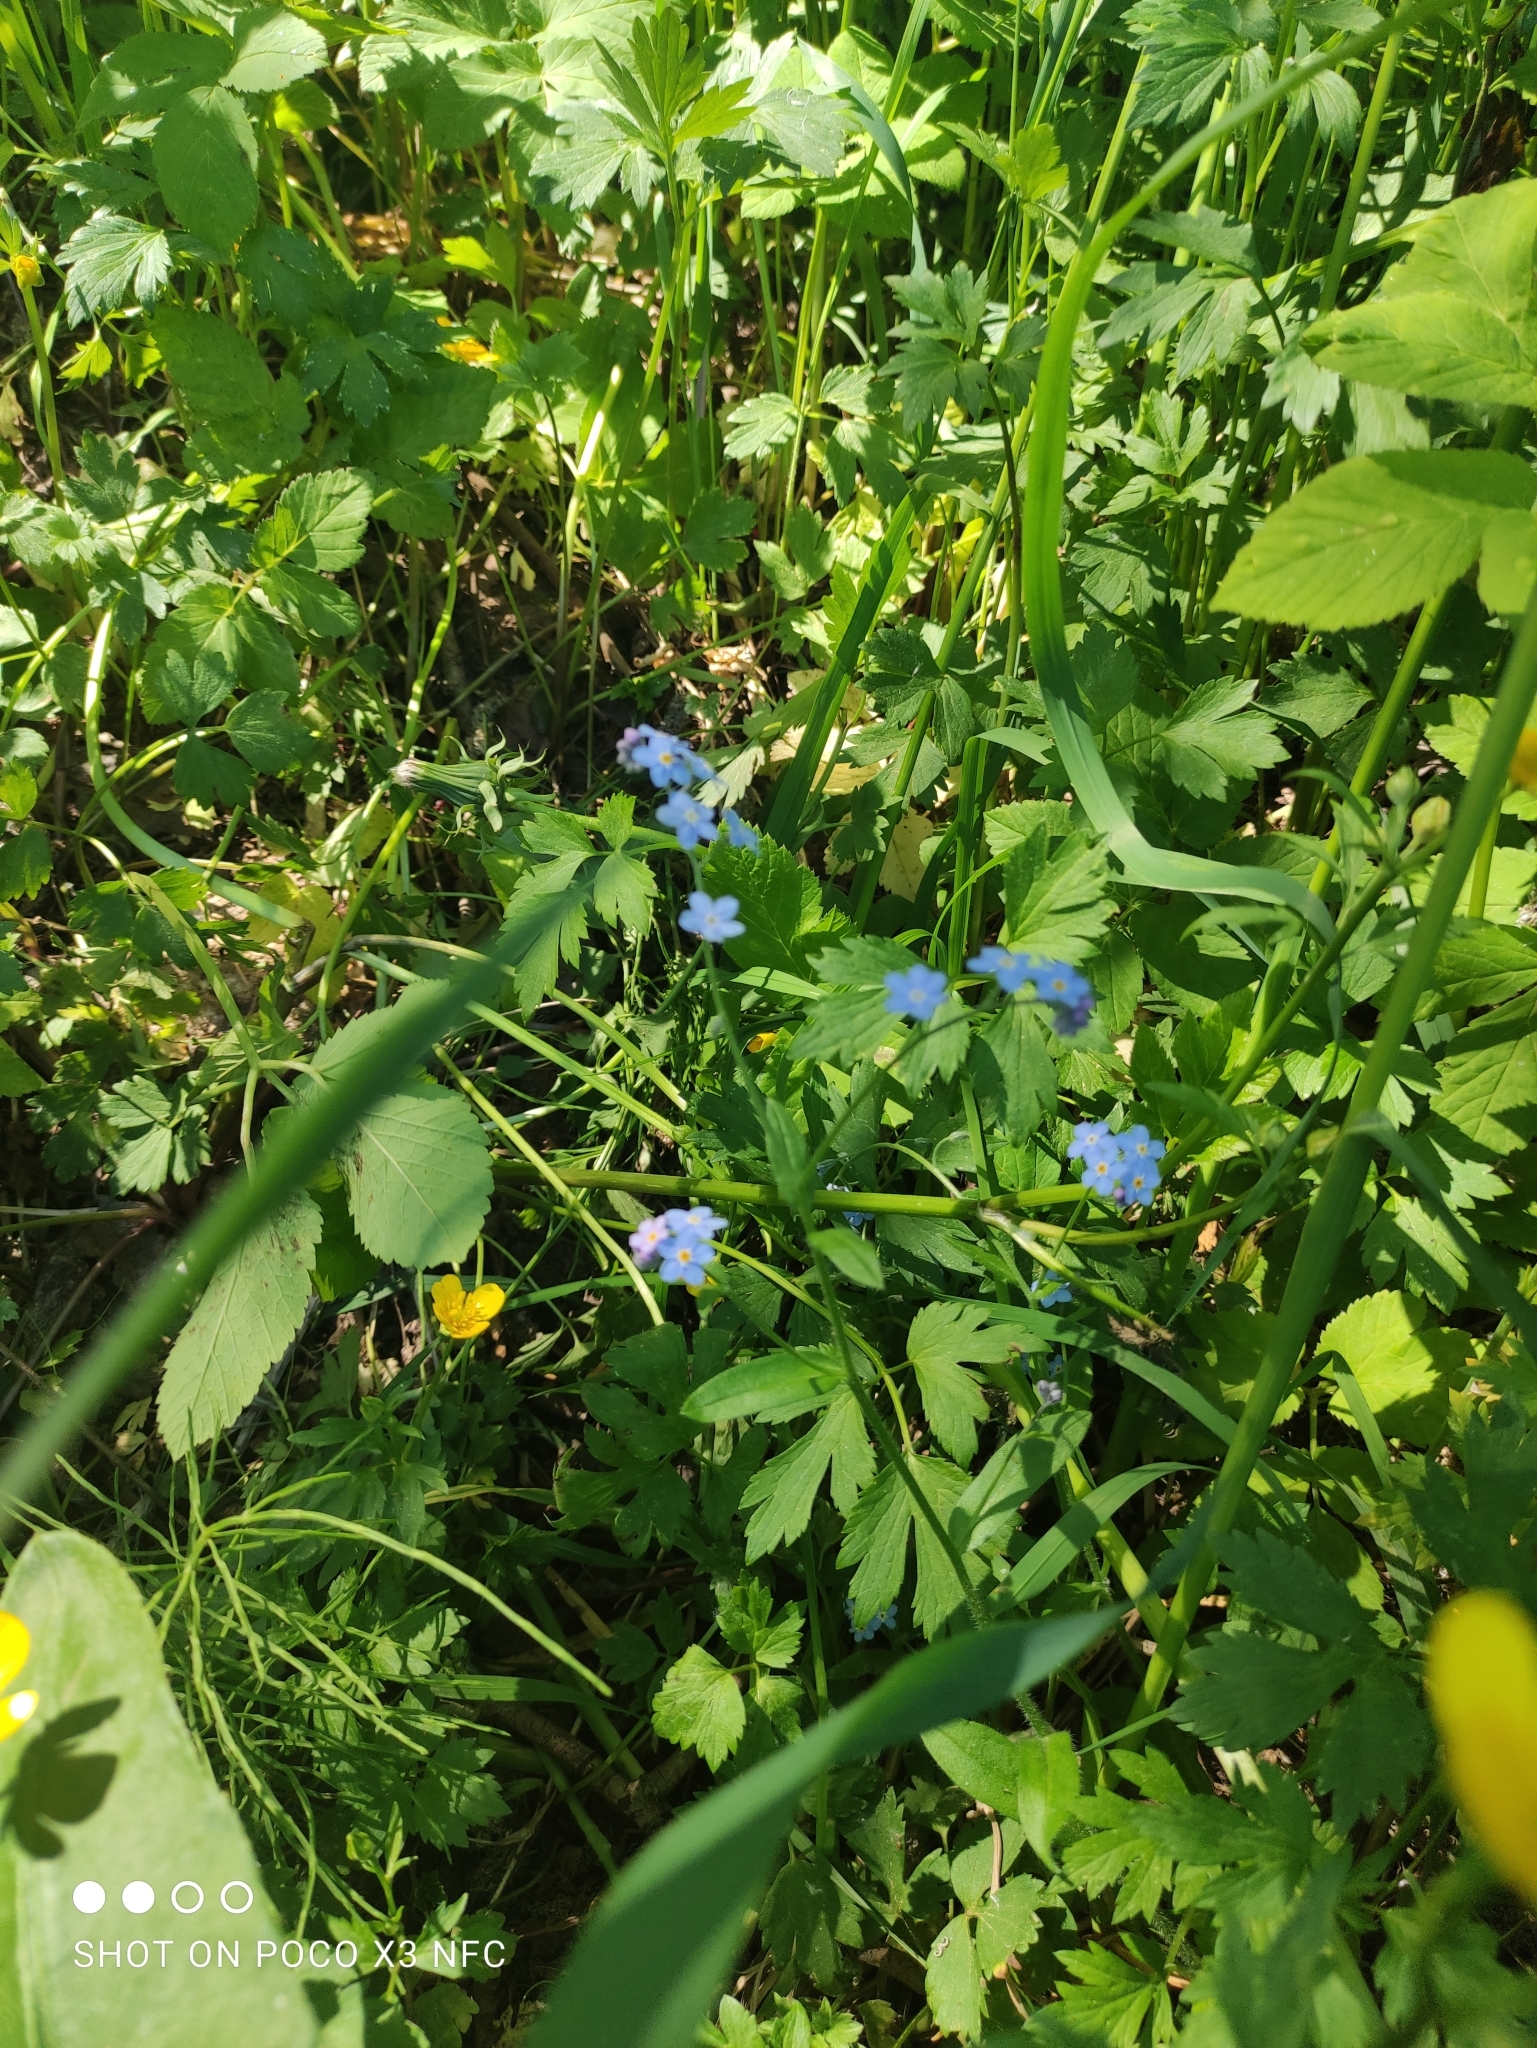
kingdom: Plantae
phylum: Tracheophyta
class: Magnoliopsida
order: Boraginales
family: Boraginaceae
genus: Myosotis
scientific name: Myosotis sylvatica
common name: Wood forget-me-not
